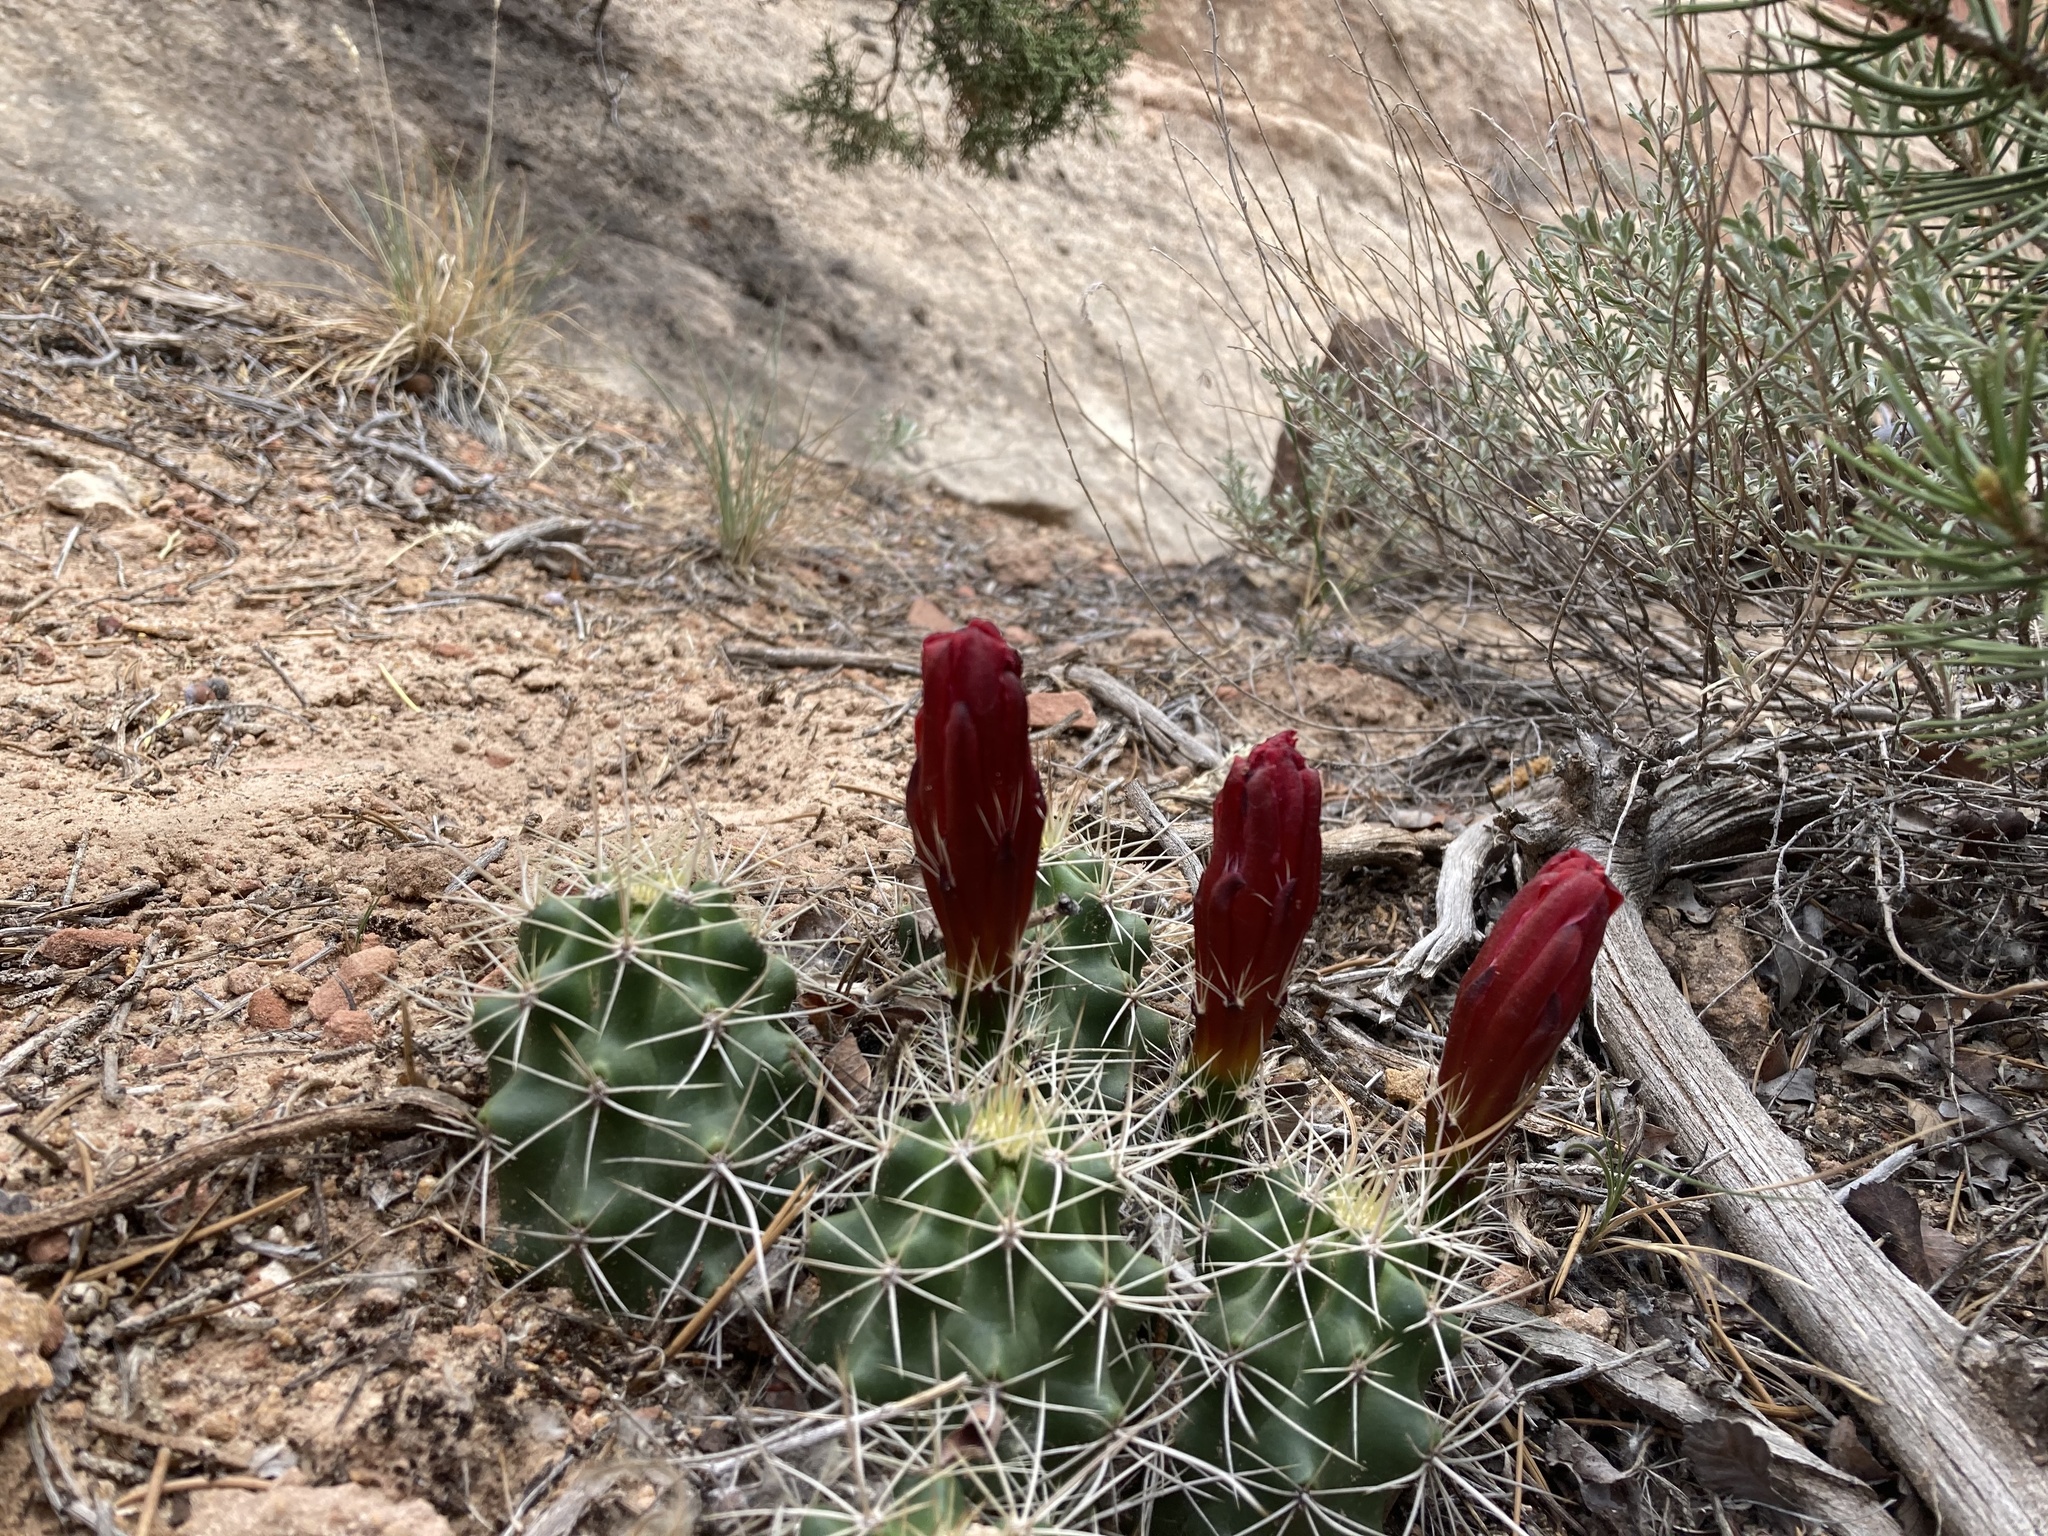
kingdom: Plantae
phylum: Tracheophyta
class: Magnoliopsida
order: Caryophyllales
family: Cactaceae
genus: Echinocereus
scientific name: Echinocereus triglochidiatus
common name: Claretcup hedgehog
